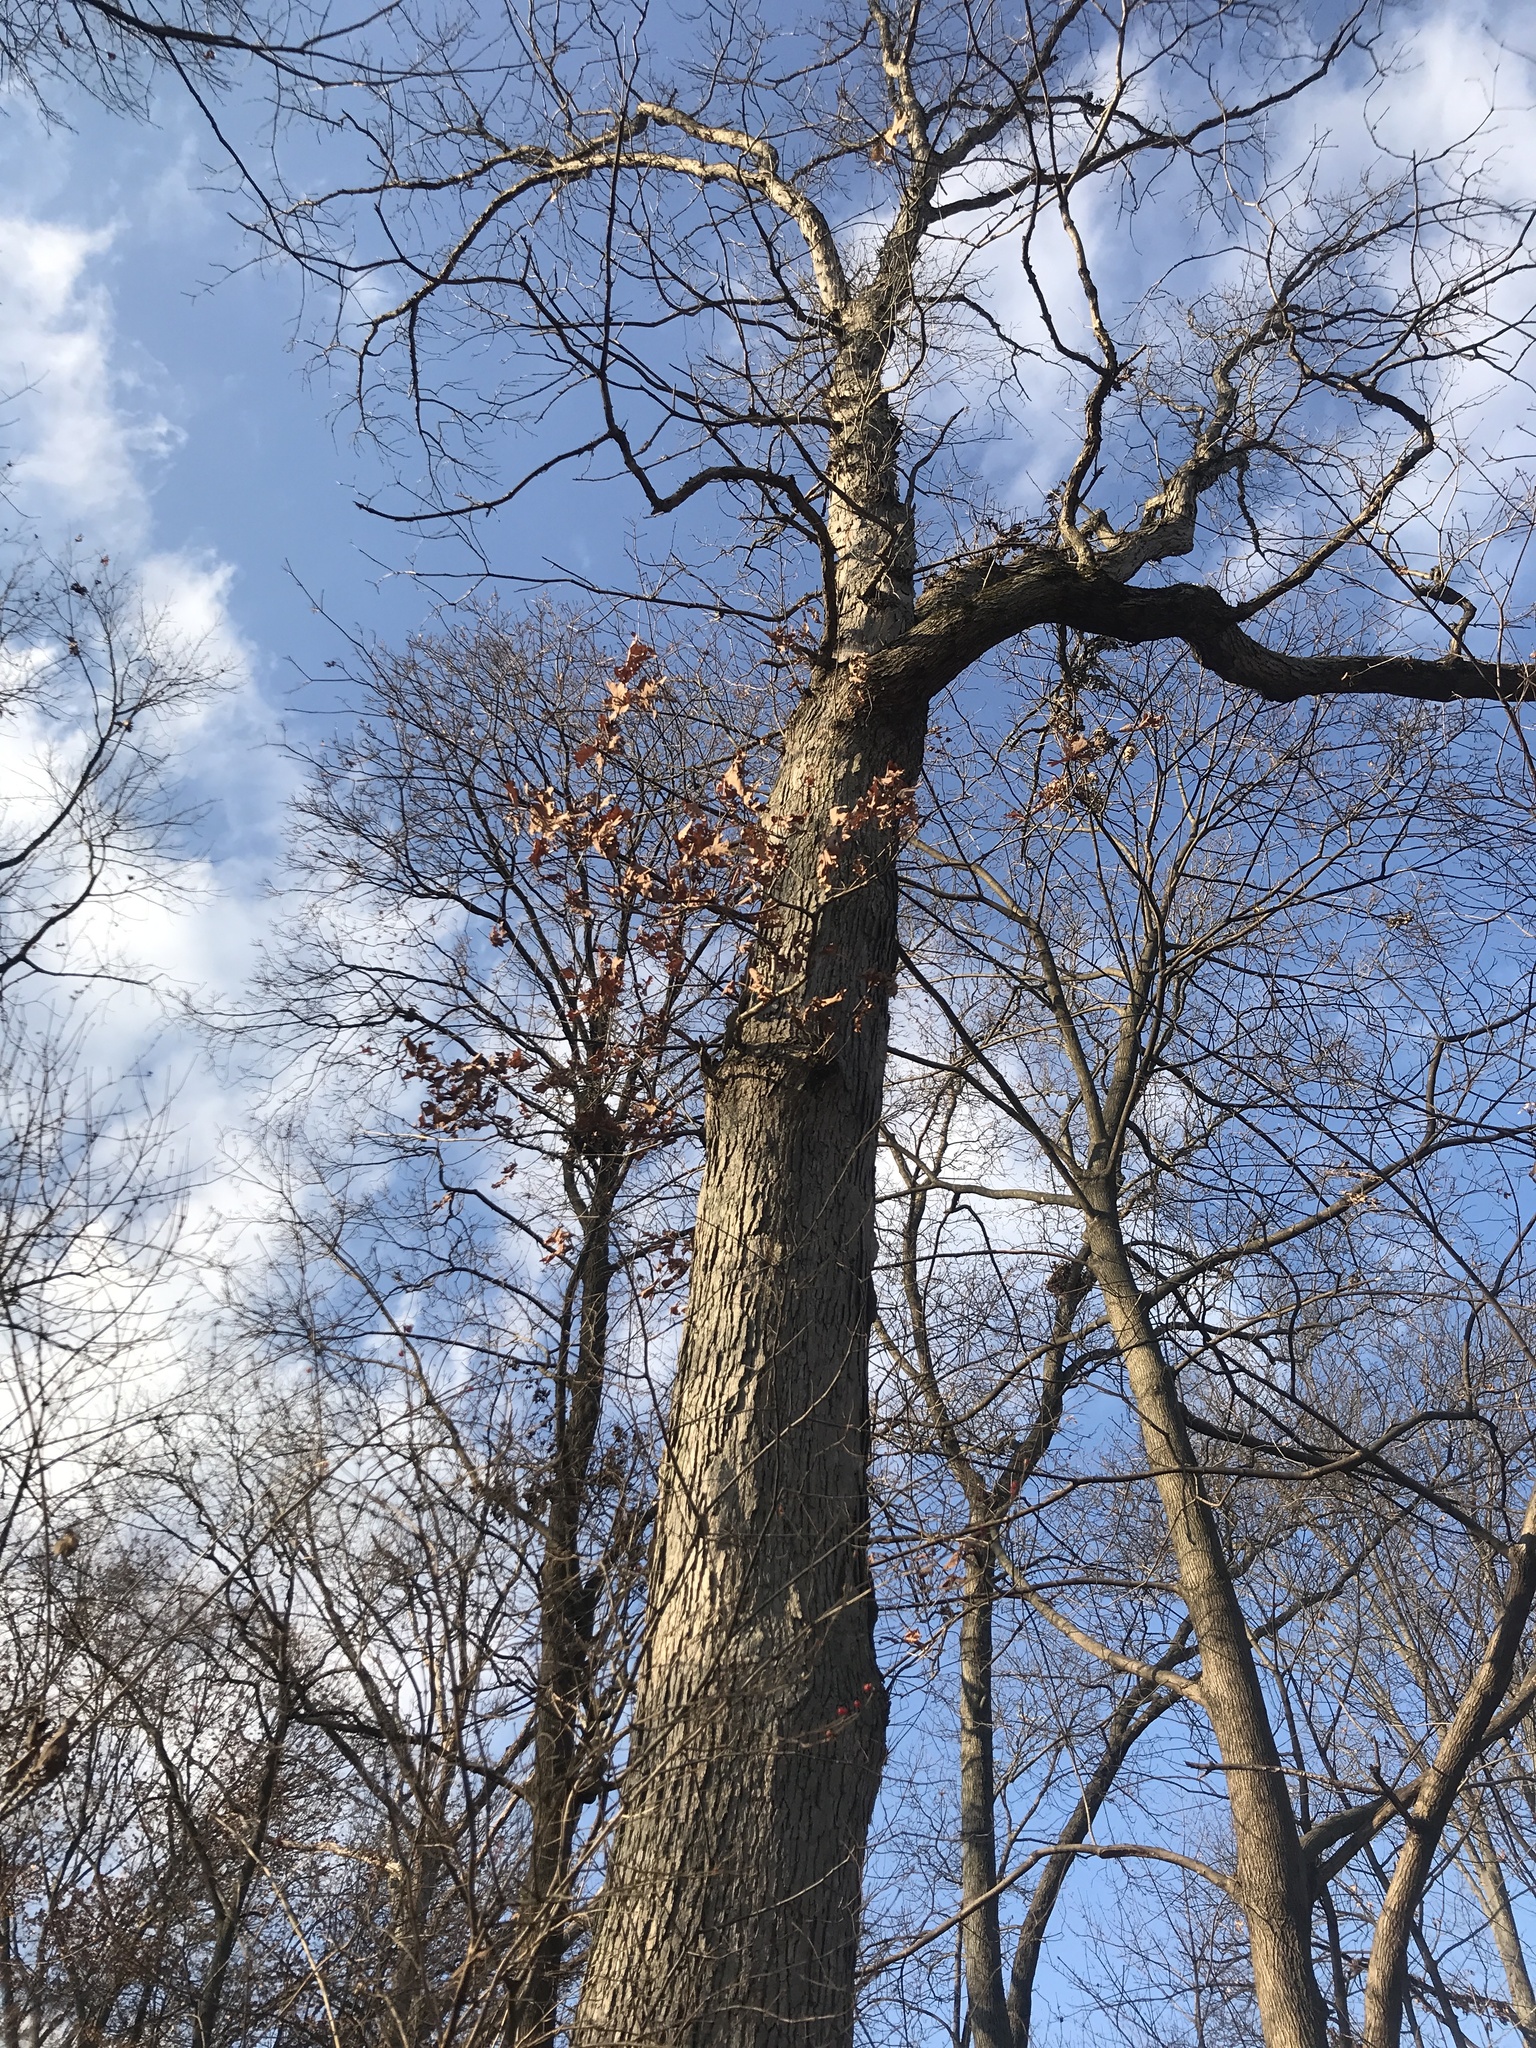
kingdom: Plantae
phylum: Tracheophyta
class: Magnoliopsida
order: Fagales
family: Fagaceae
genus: Quercus
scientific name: Quercus alba
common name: White oak
